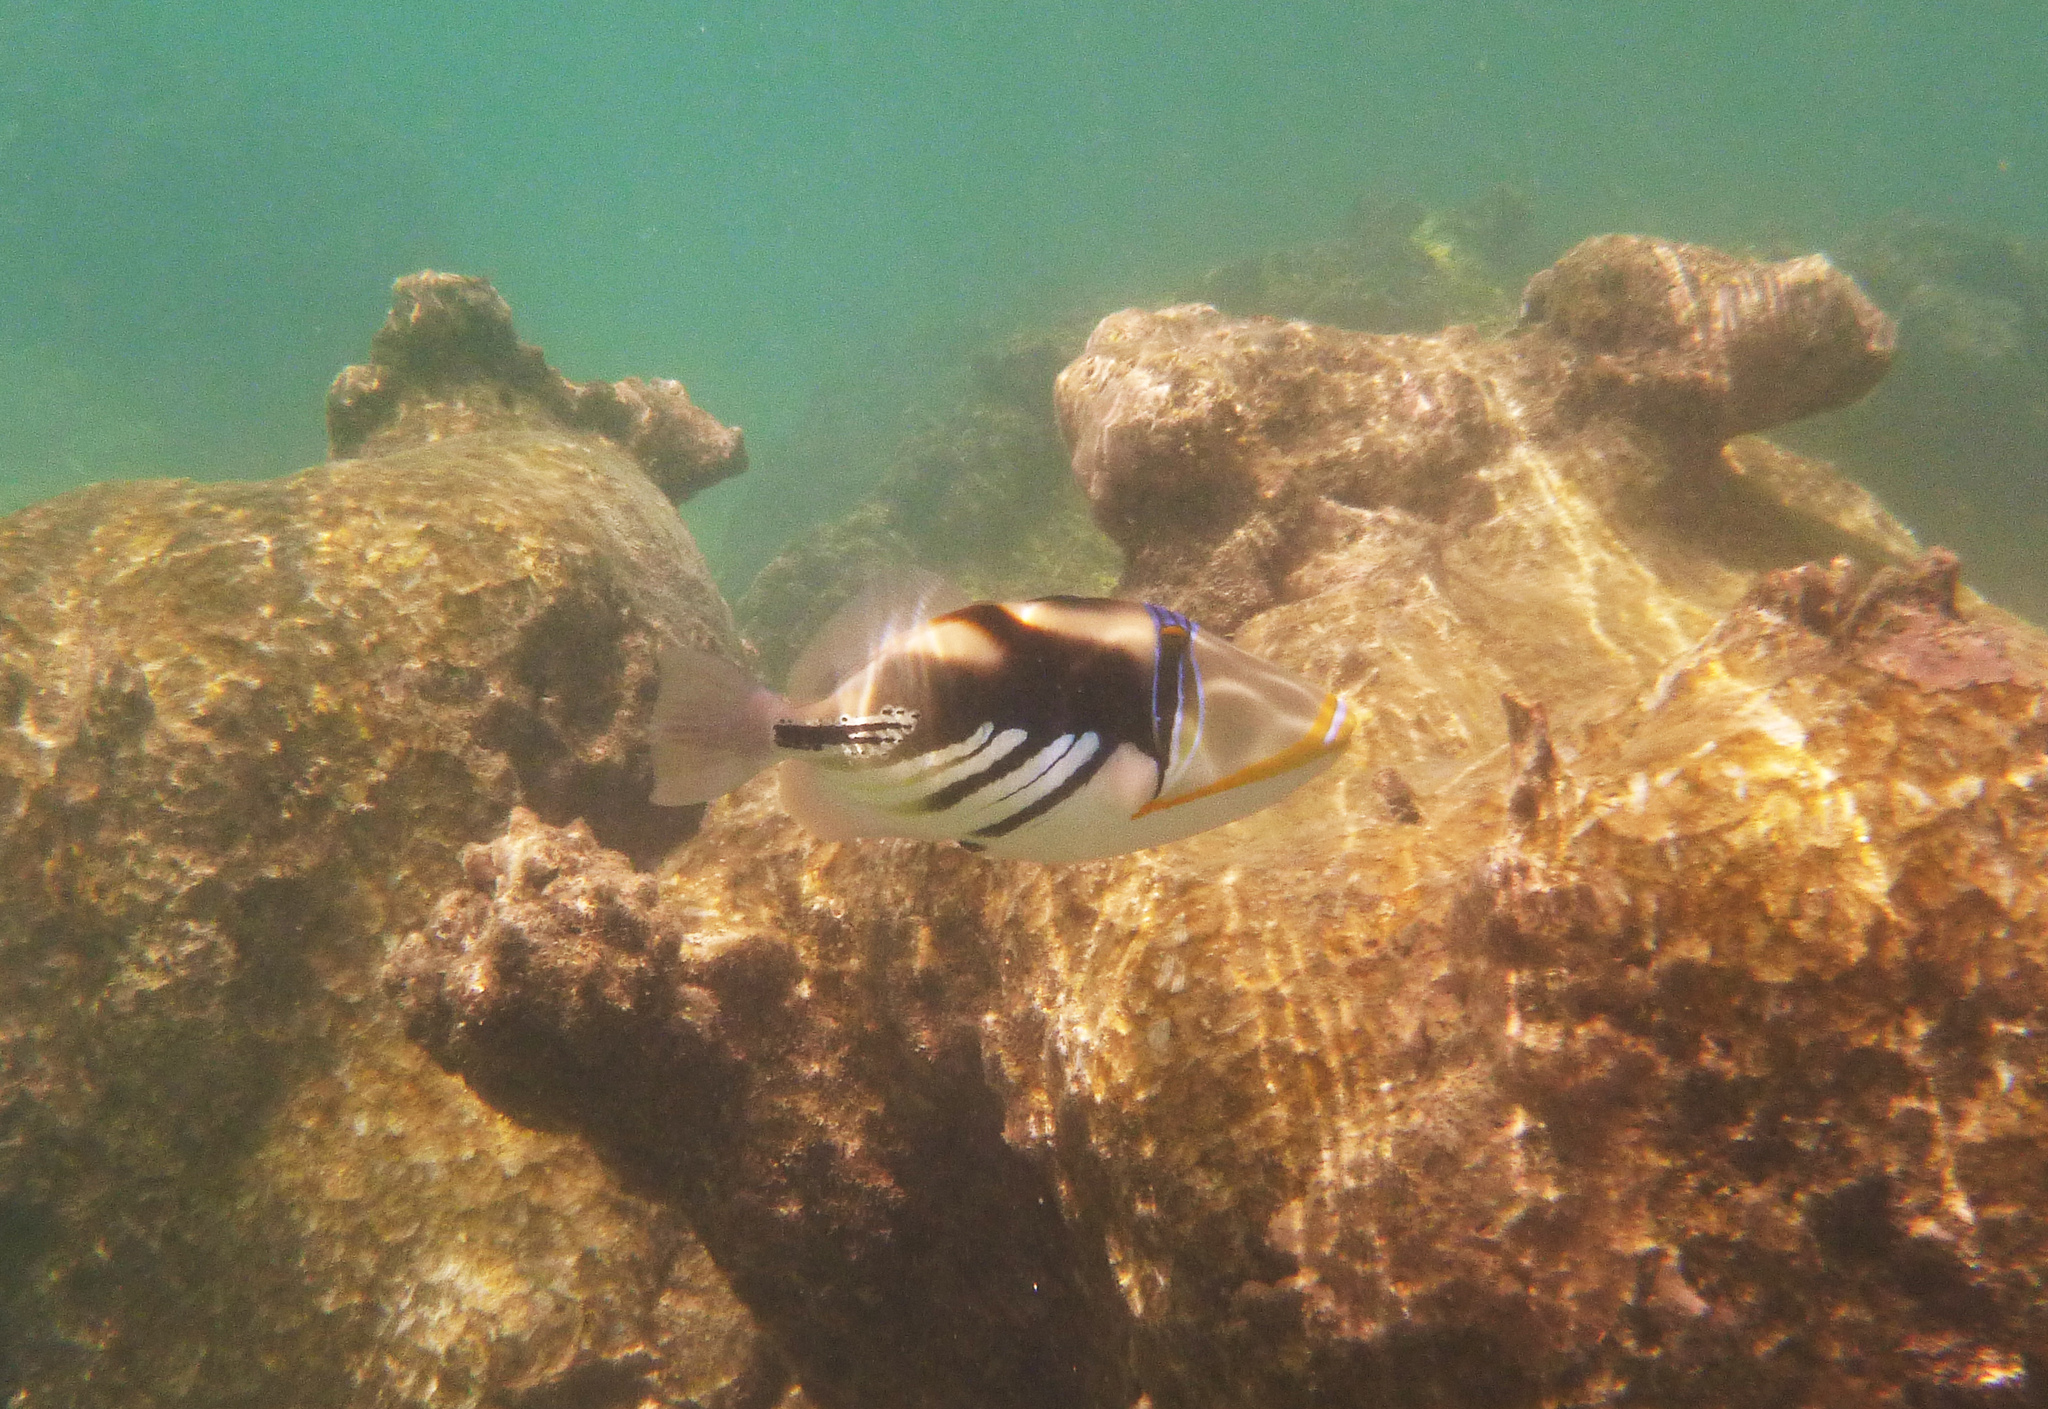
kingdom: Animalia
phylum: Chordata
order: Tetraodontiformes
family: Balistidae
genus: Rhinecanthus
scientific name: Rhinecanthus aculeatus
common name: White-banded triggerfish
